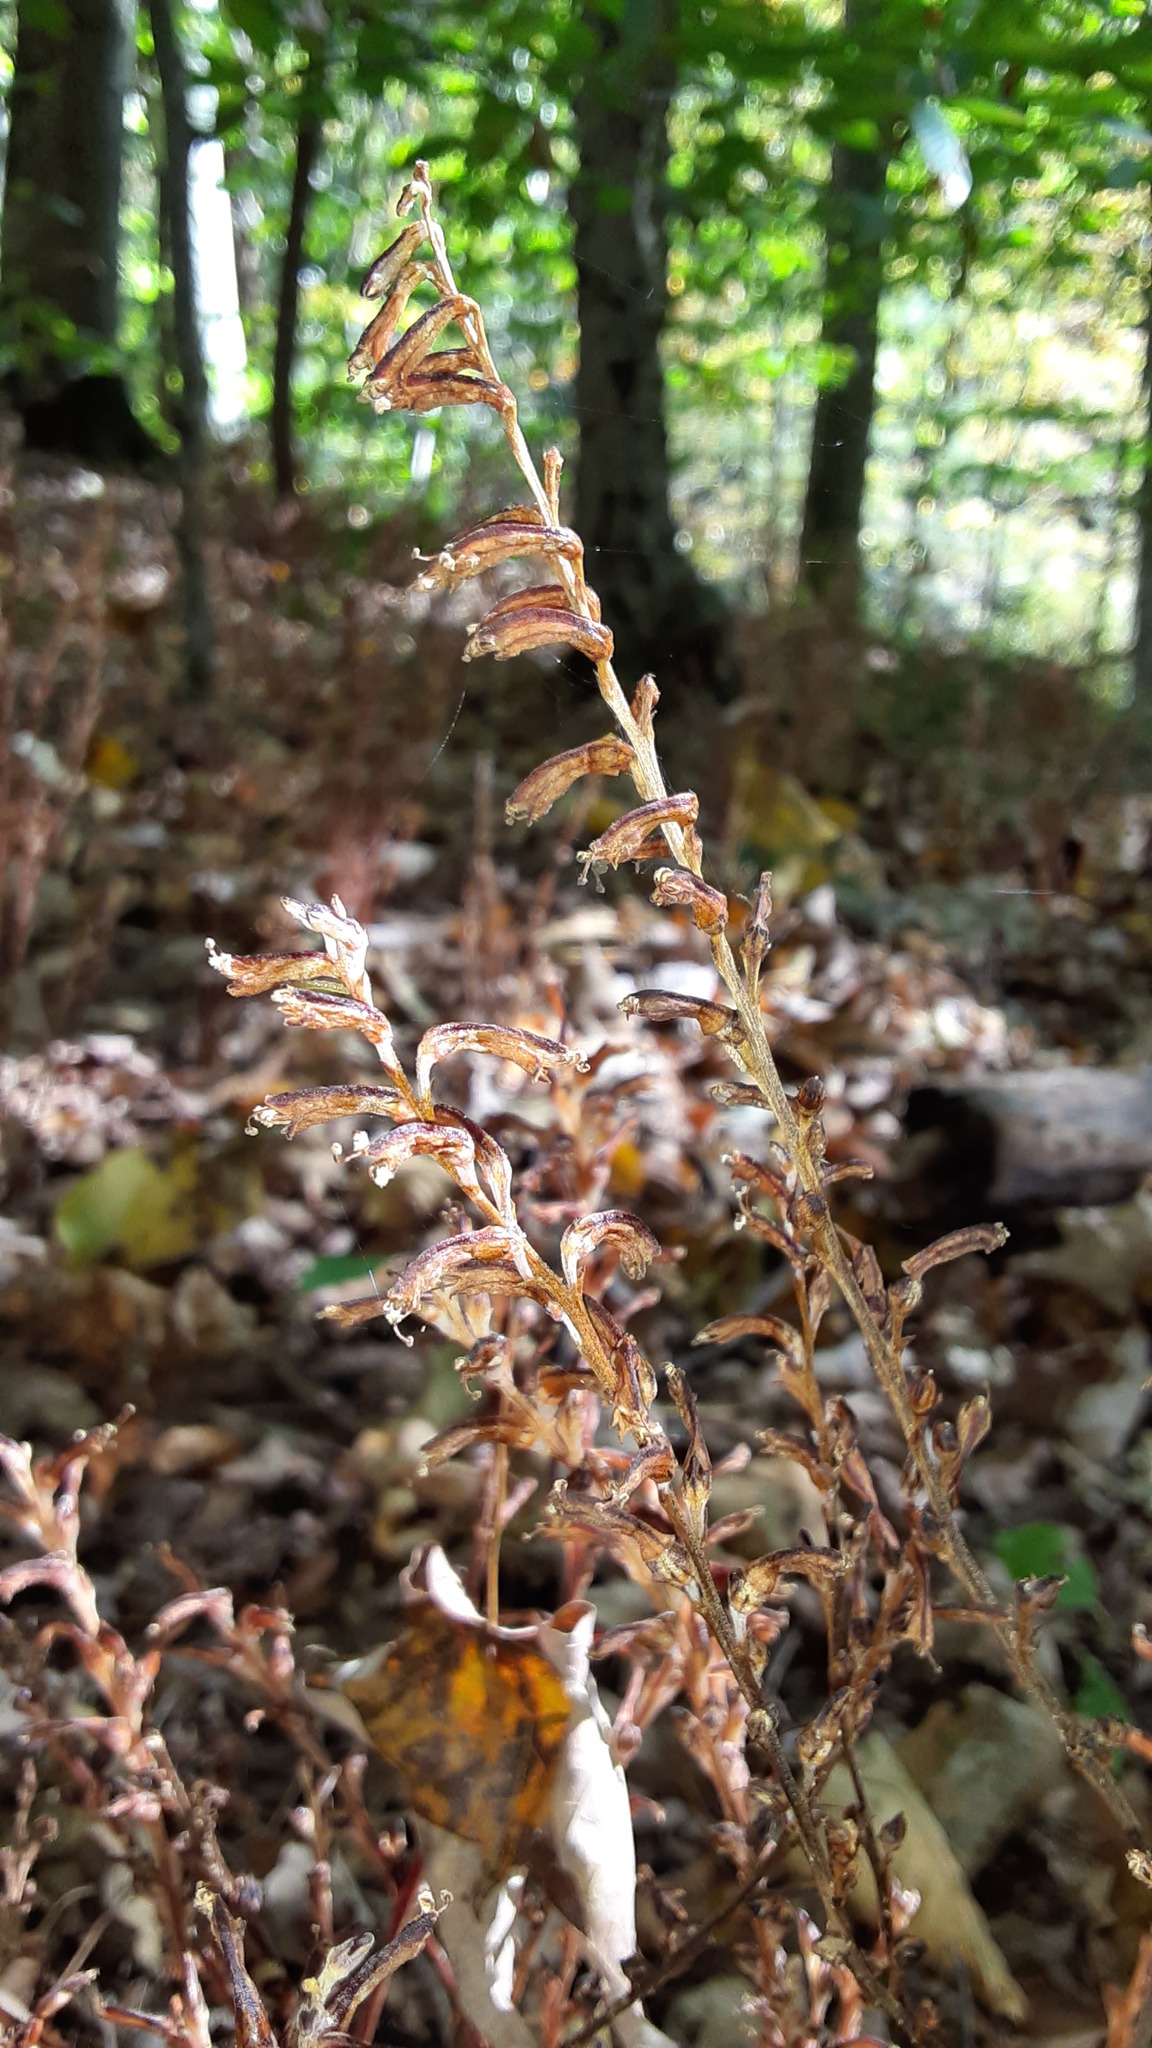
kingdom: Plantae
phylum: Tracheophyta
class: Magnoliopsida
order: Lamiales
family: Orobanchaceae
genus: Epifagus
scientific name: Epifagus virginiana
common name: Beechdrops
